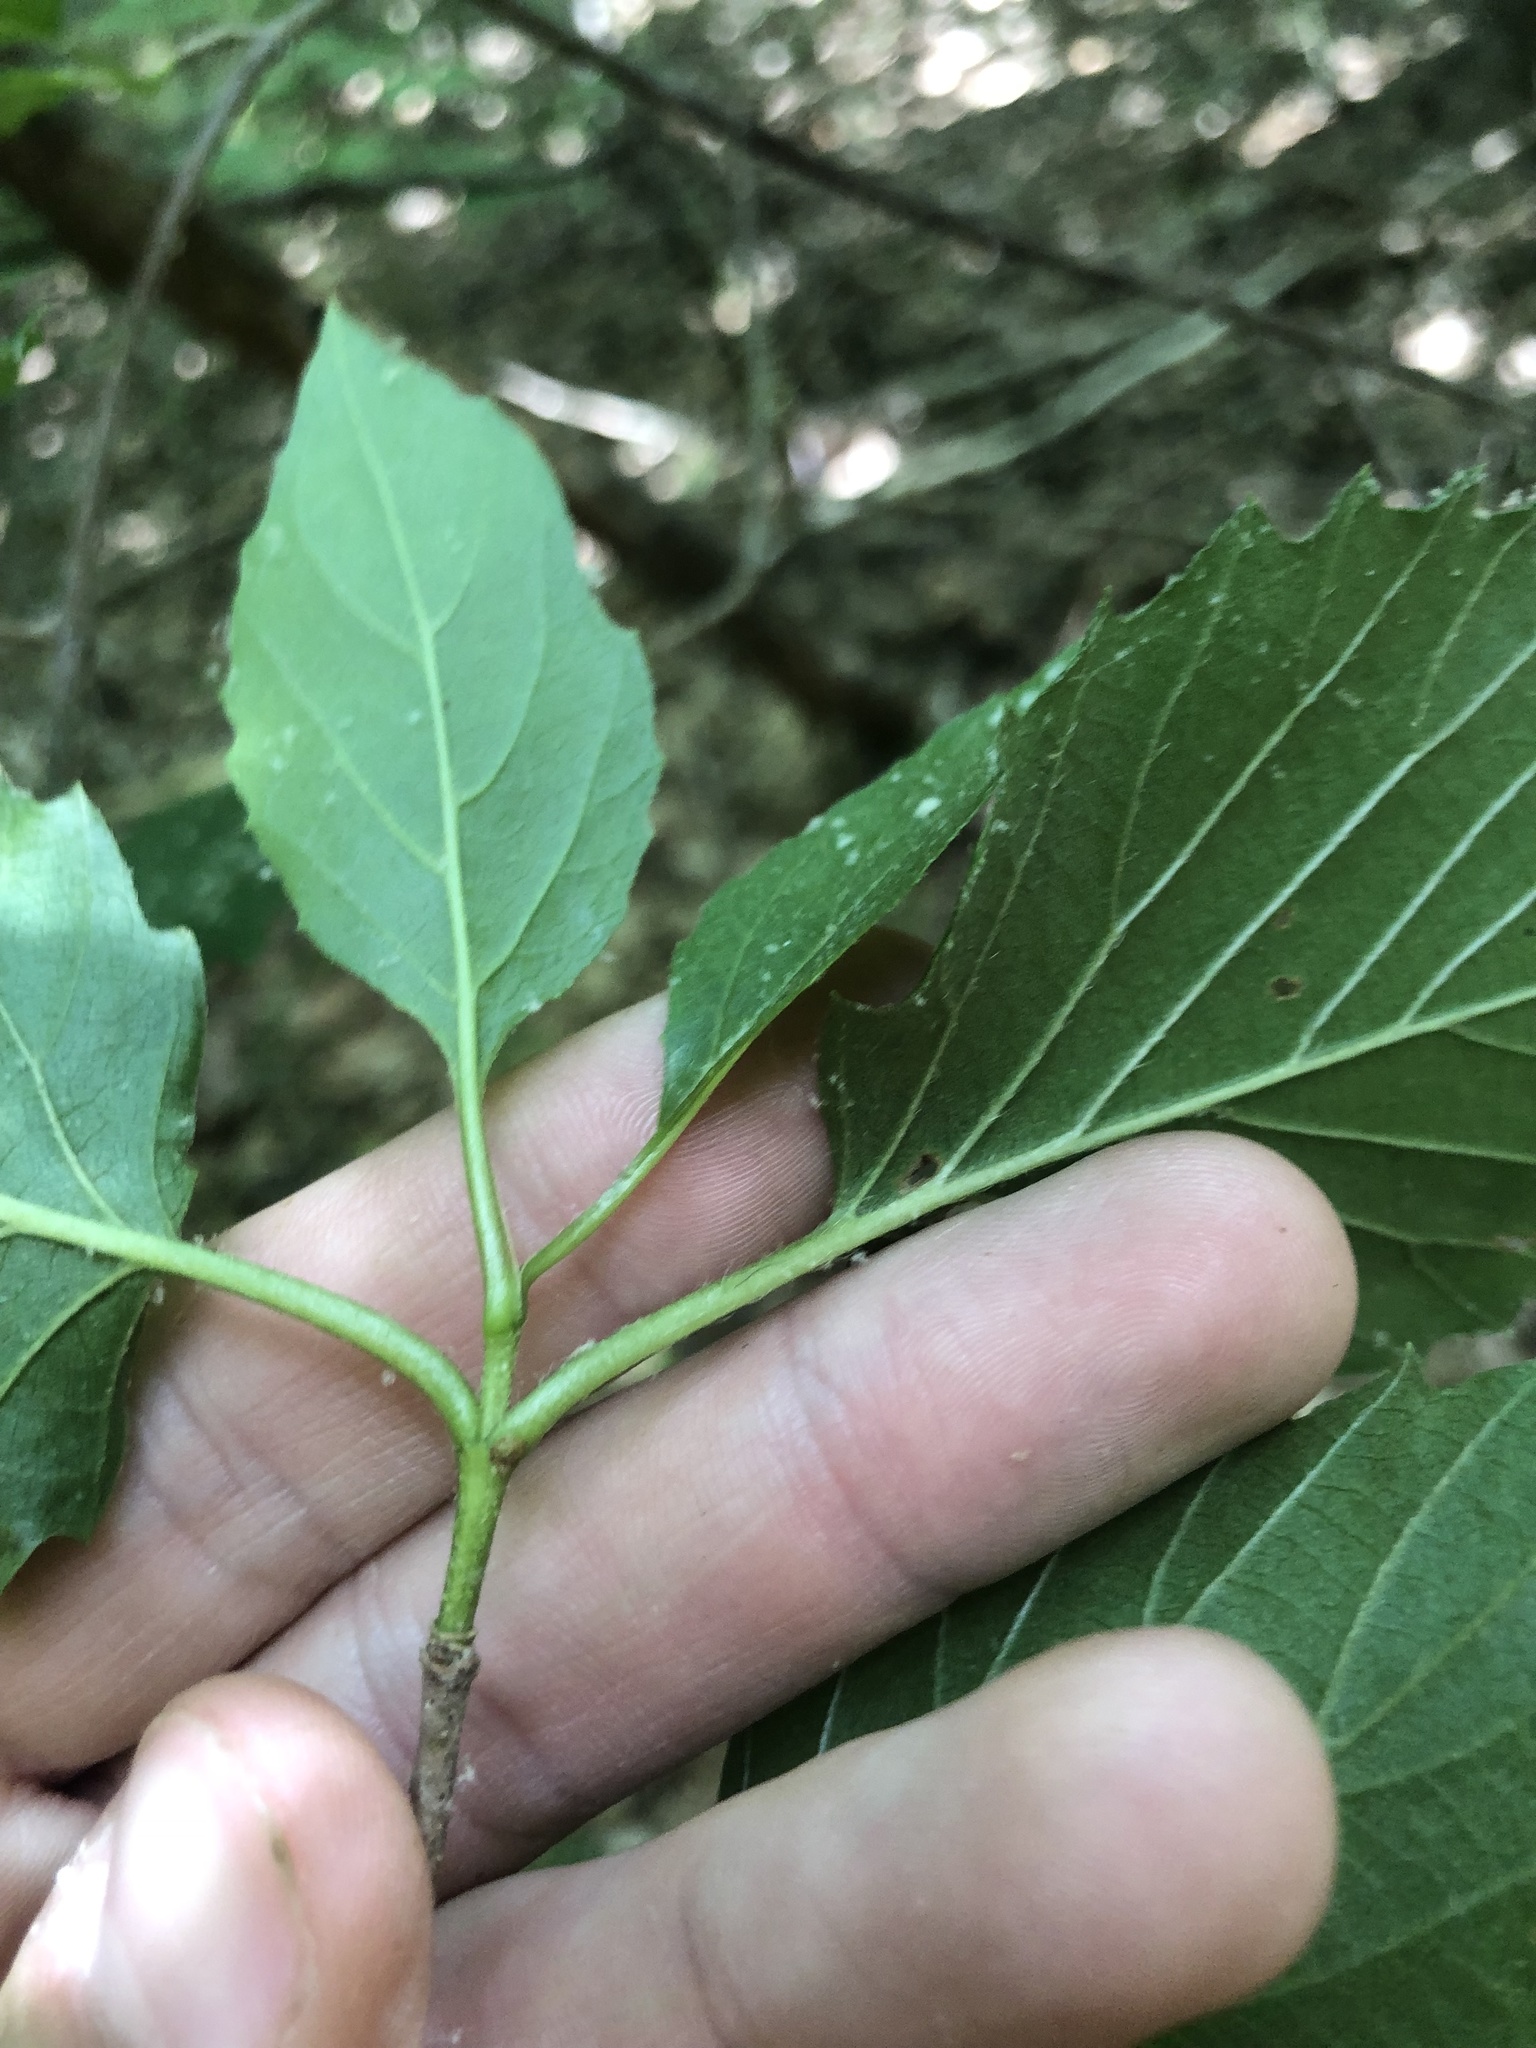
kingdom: Plantae
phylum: Tracheophyta
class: Magnoliopsida
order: Dipsacales
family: Viburnaceae
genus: Viburnum
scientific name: Viburnum scabrellum
